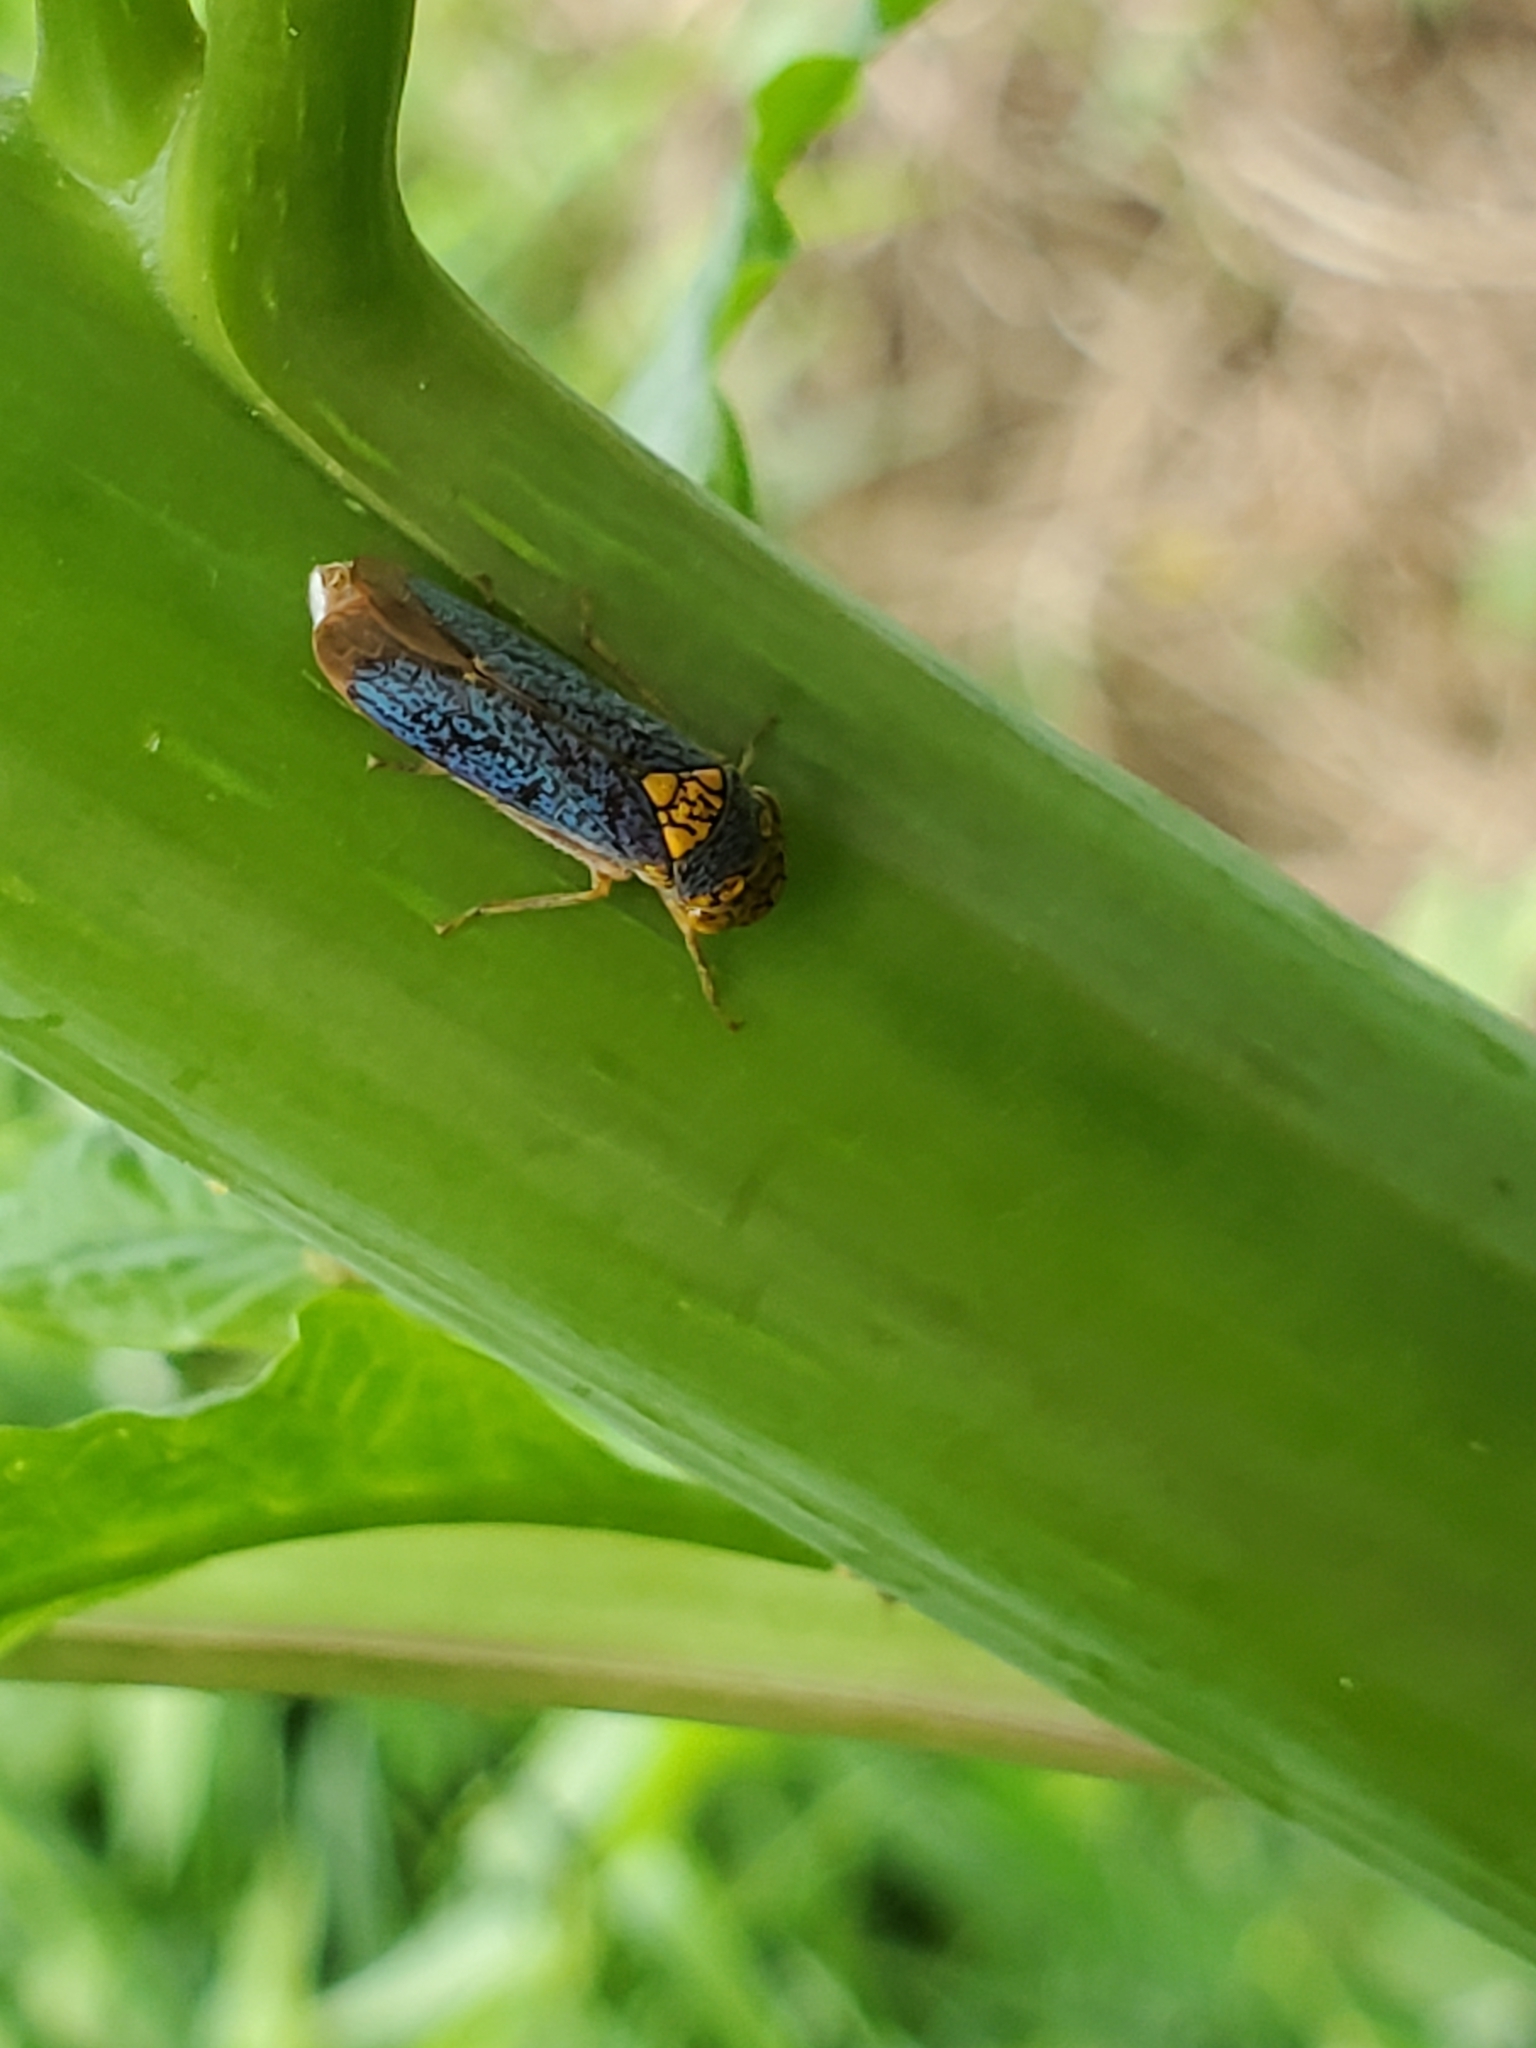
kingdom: Animalia
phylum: Arthropoda
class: Insecta
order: Hemiptera
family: Cicadellidae
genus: Oncometopia
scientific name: Oncometopia orbona
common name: Broad-headed sharpshooter
